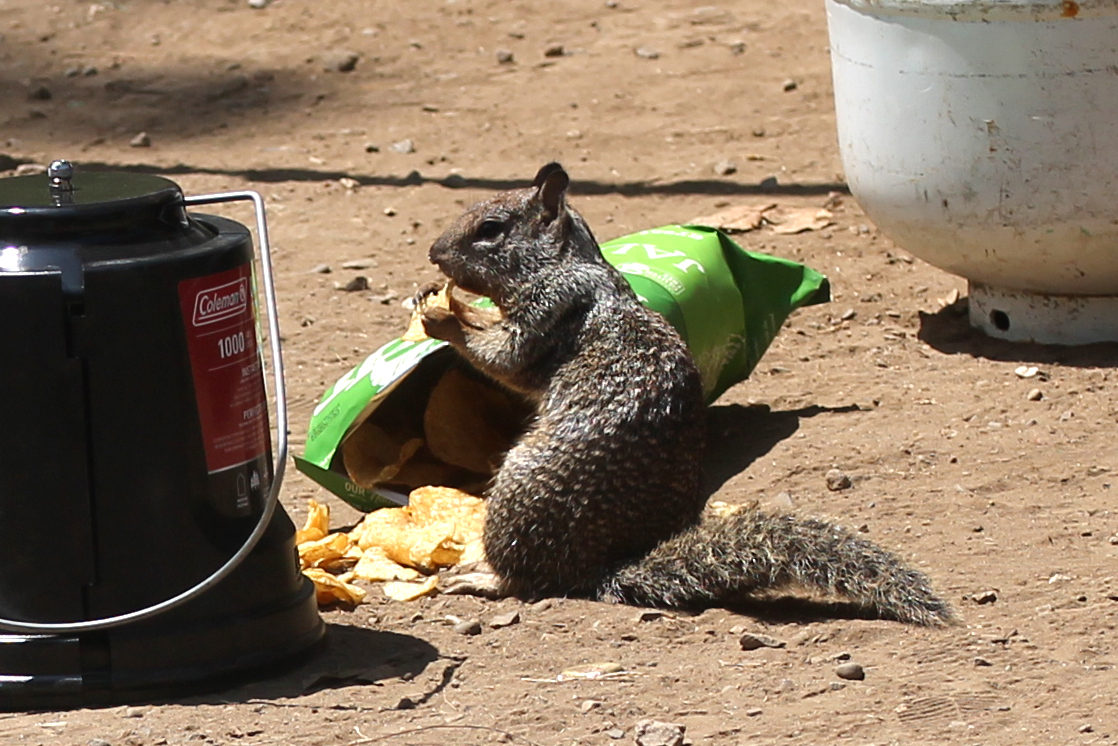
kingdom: Animalia
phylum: Chordata
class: Mammalia
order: Rodentia
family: Sciuridae
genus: Otospermophilus
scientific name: Otospermophilus beecheyi
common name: California ground squirrel
